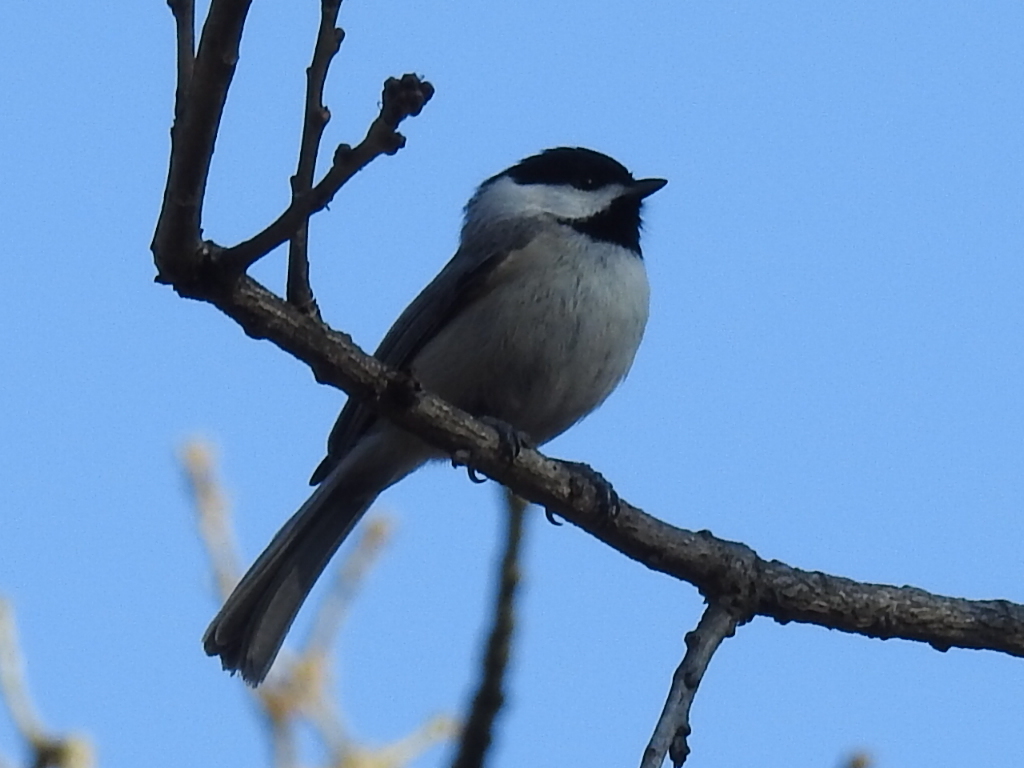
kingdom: Animalia
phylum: Chordata
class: Aves
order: Passeriformes
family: Paridae
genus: Poecile
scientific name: Poecile carolinensis
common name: Carolina chickadee
